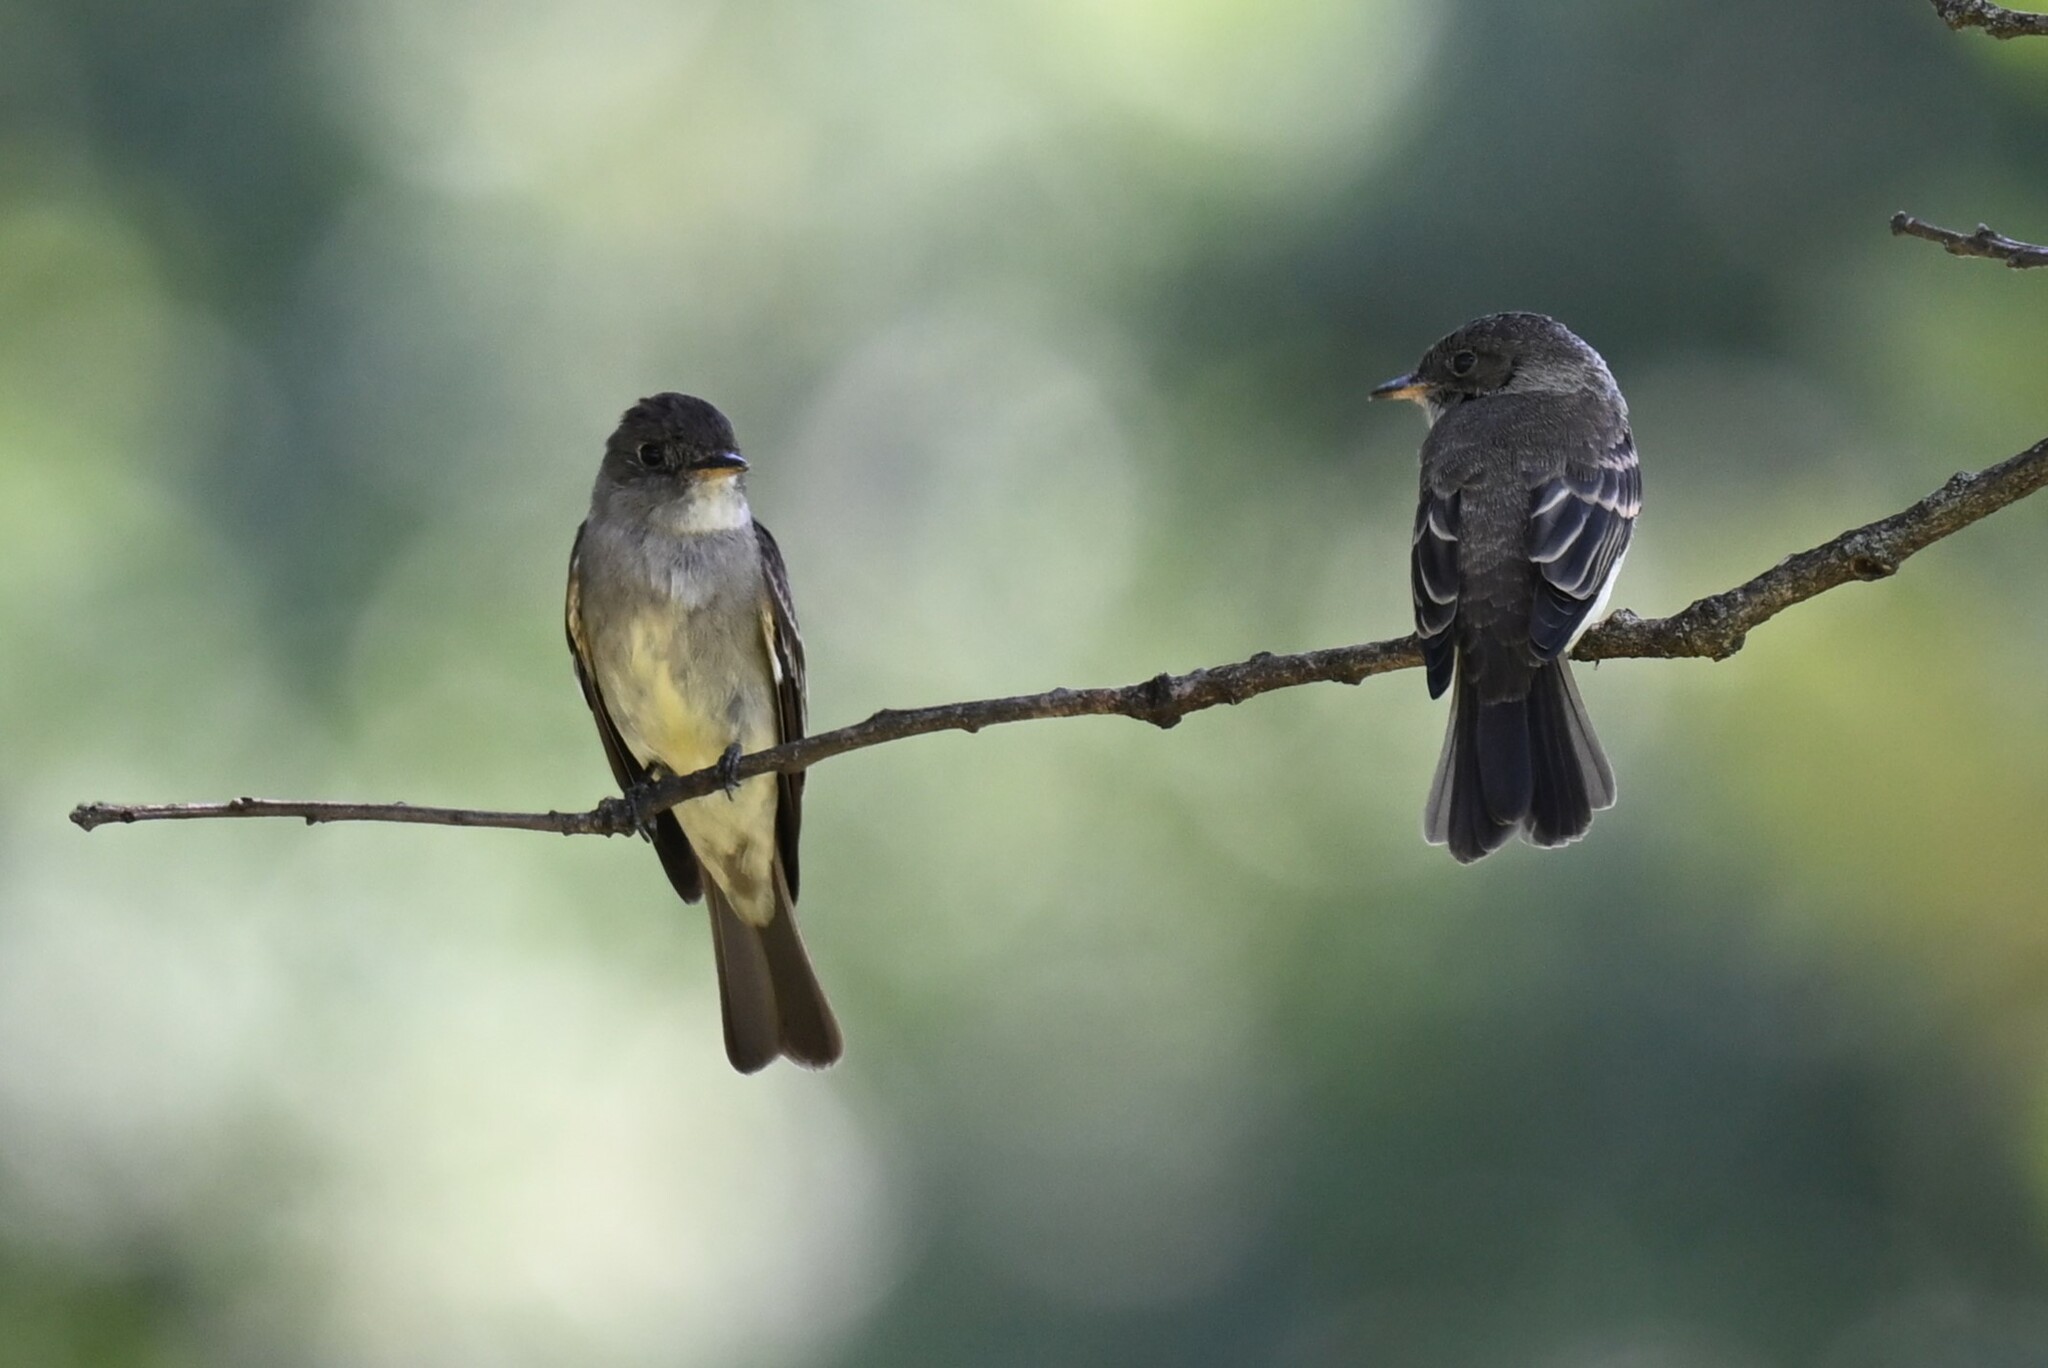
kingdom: Animalia
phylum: Chordata
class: Aves
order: Passeriformes
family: Tyrannidae
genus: Contopus
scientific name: Contopus virens
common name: Eastern wood-pewee
